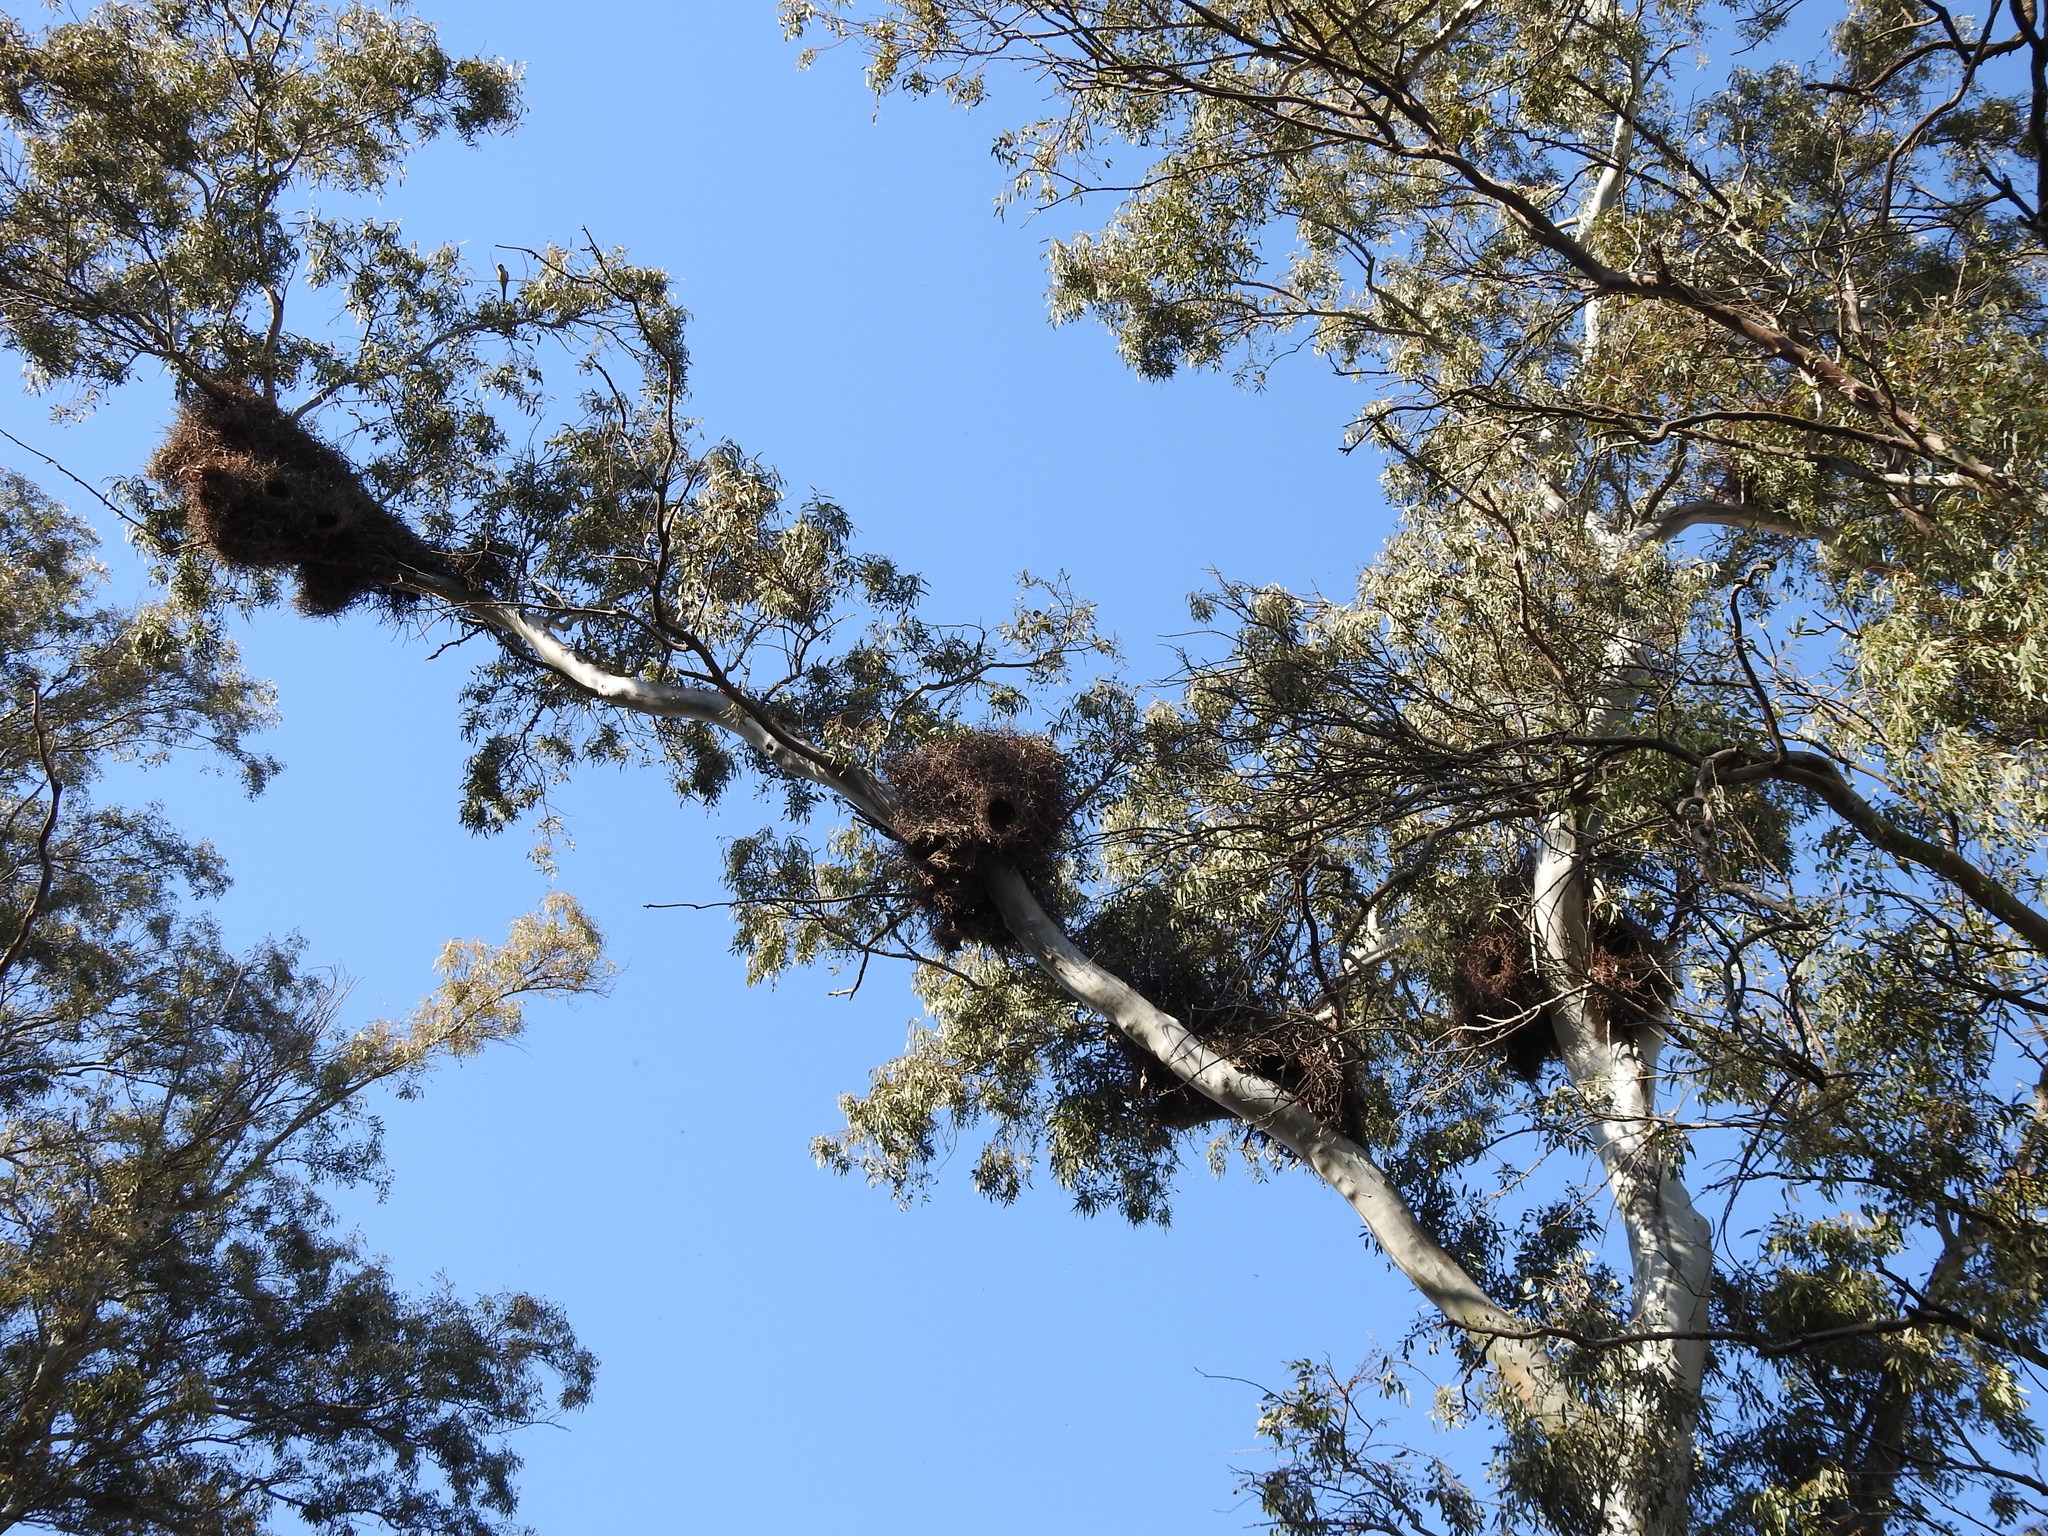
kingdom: Animalia
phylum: Chordata
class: Aves
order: Psittaciformes
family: Psittacidae
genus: Myiopsitta
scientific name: Myiopsitta monachus
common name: Monk parakeet
